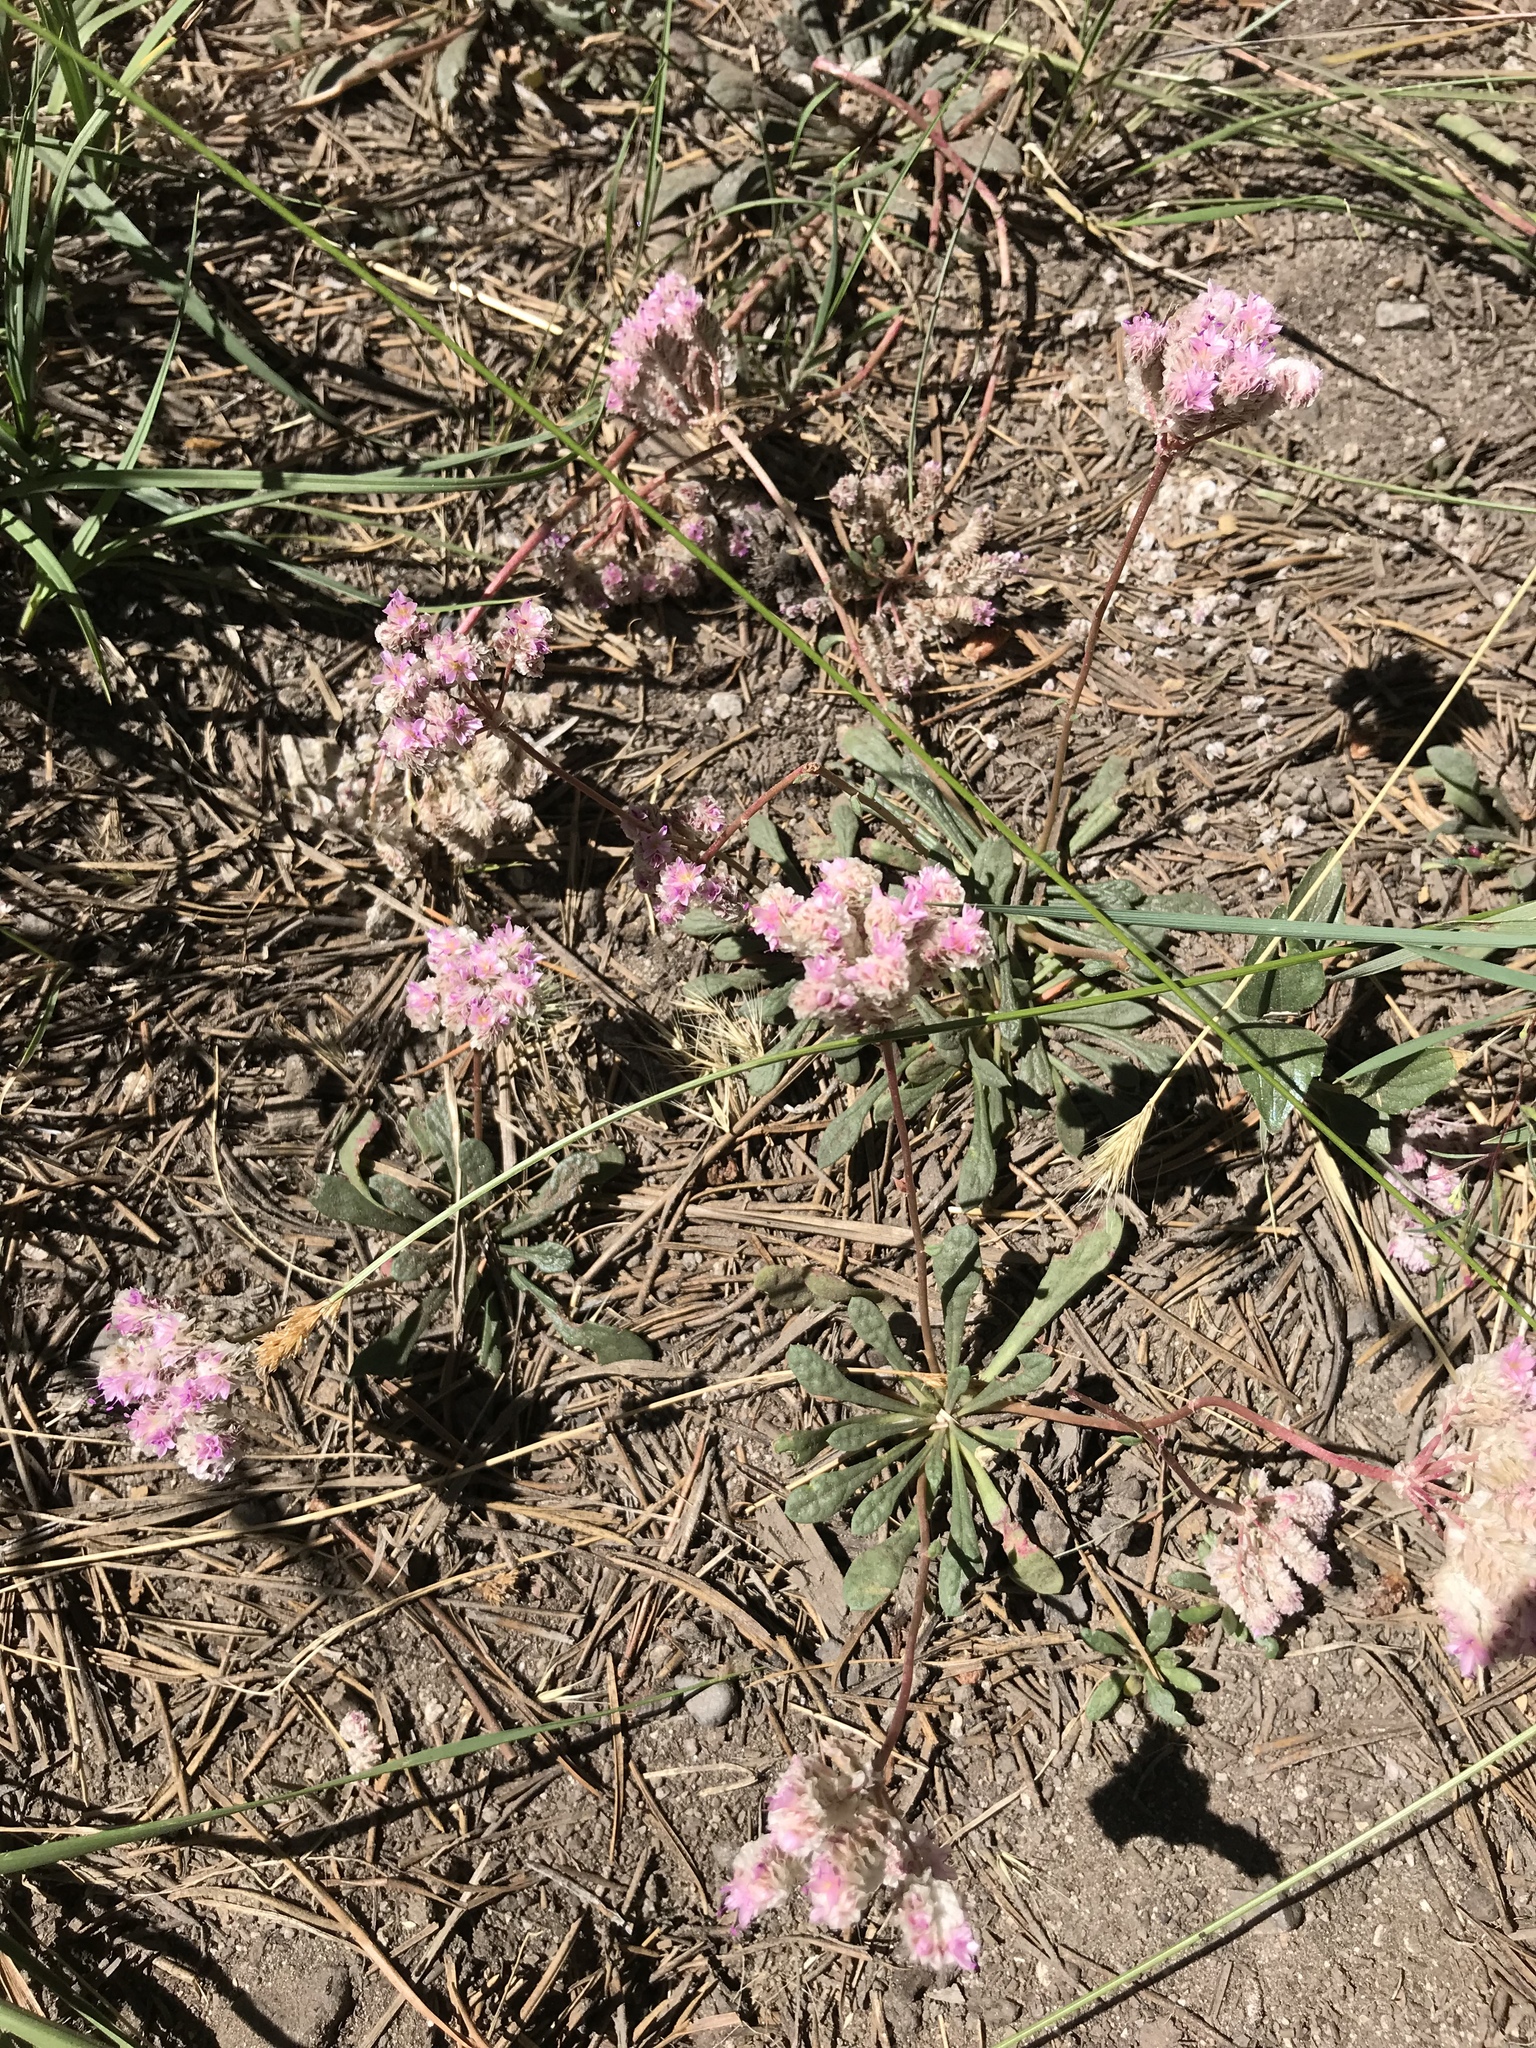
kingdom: Plantae
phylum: Tracheophyta
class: Magnoliopsida
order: Caryophyllales
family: Montiaceae
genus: Calyptridium
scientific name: Calyptridium monospermum
